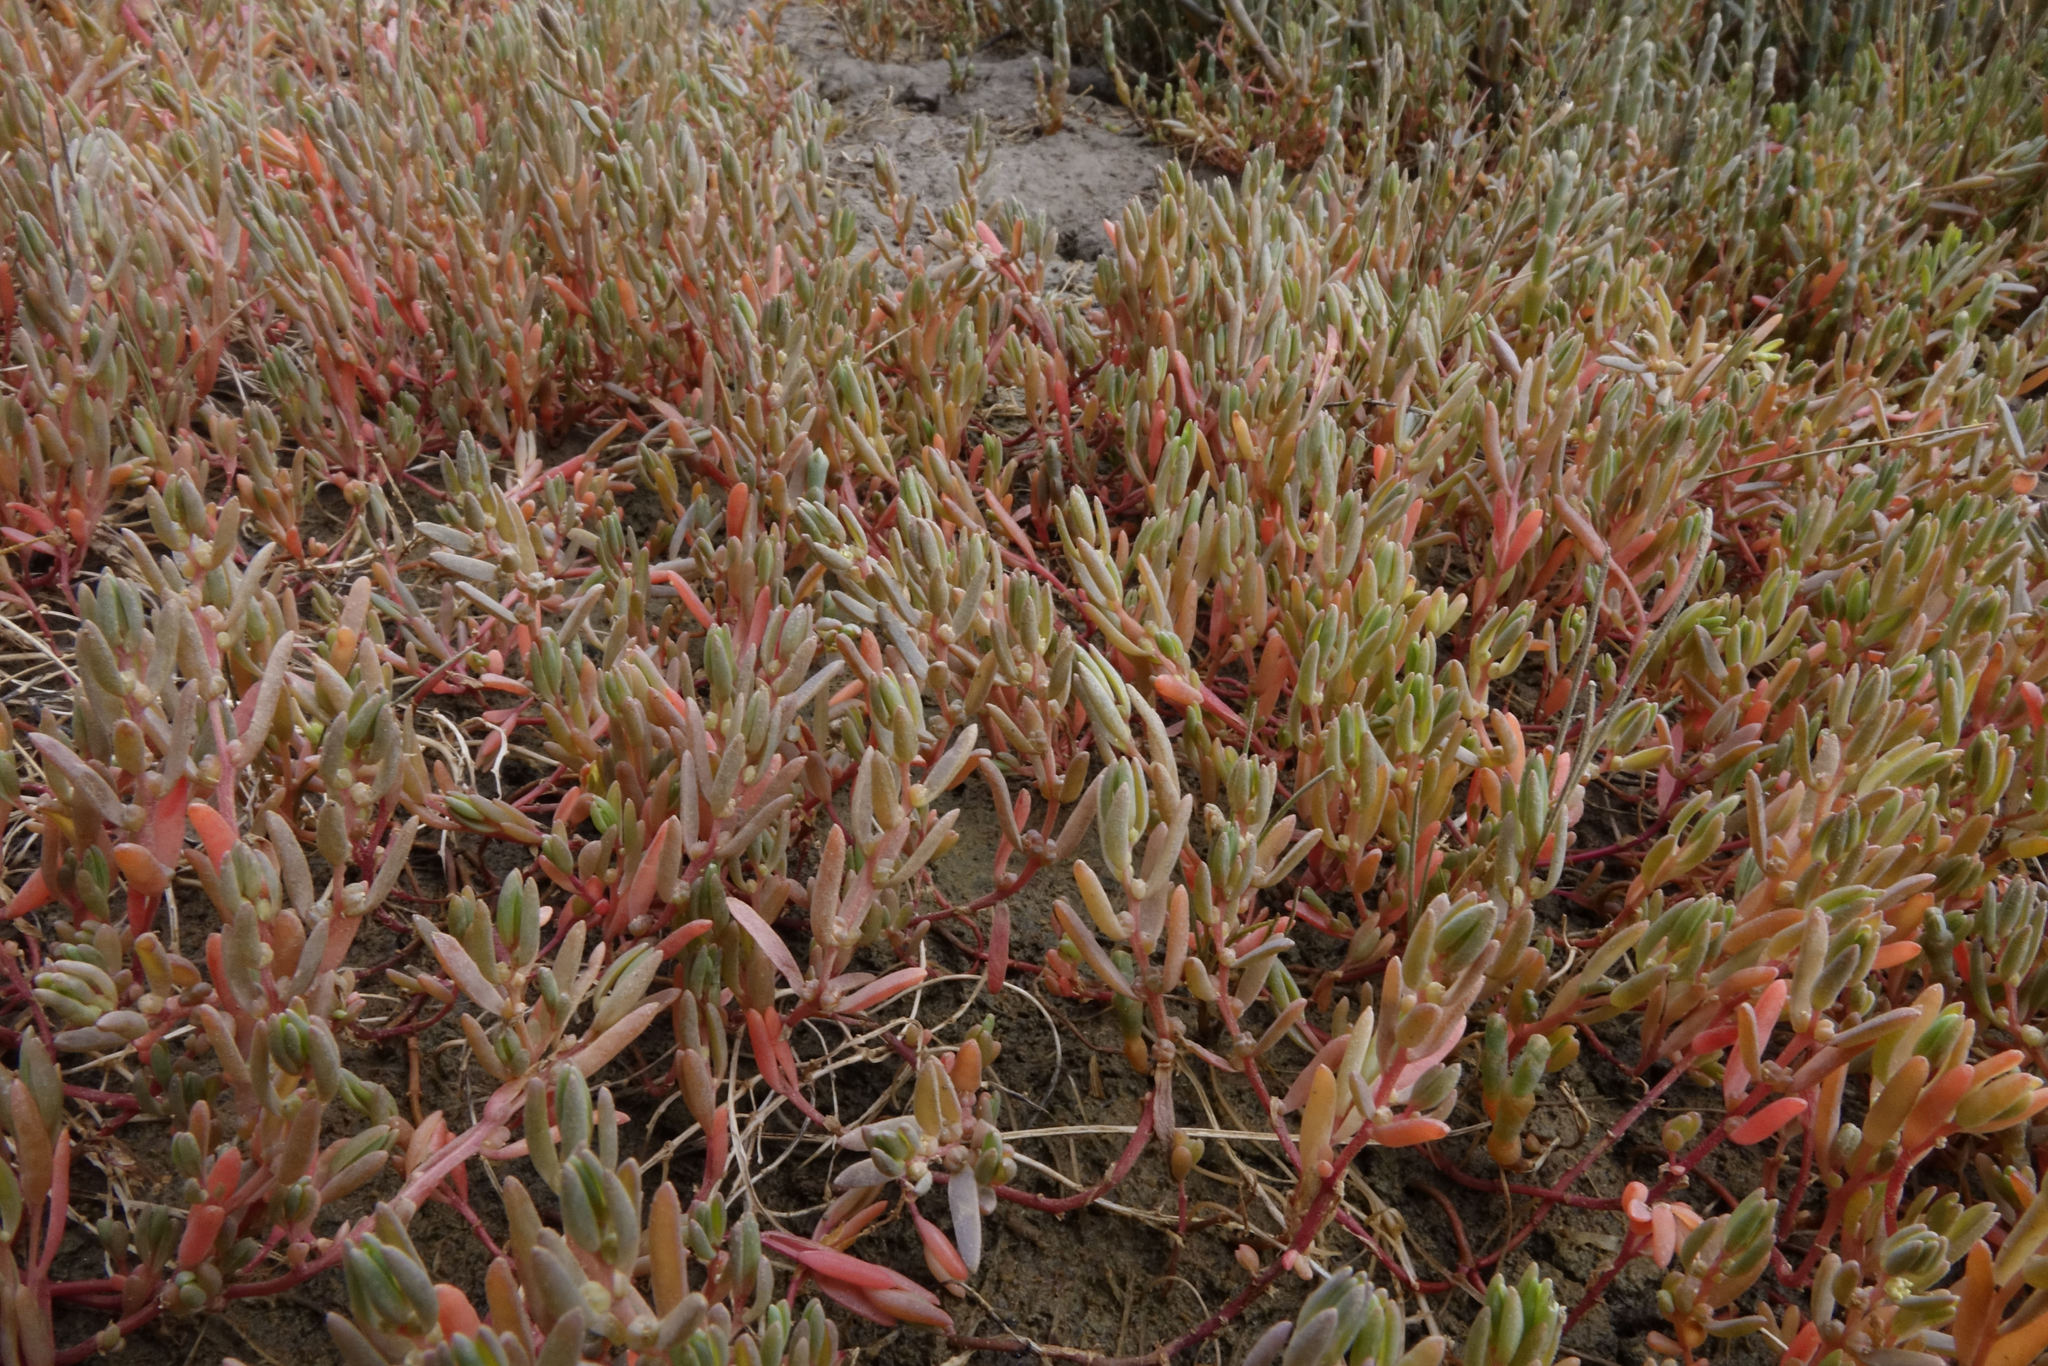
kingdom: Plantae
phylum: Tracheophyta
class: Magnoliopsida
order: Caryophyllales
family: Amaranthaceae
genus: Suaeda
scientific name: Suaeda novae-zelandiae
